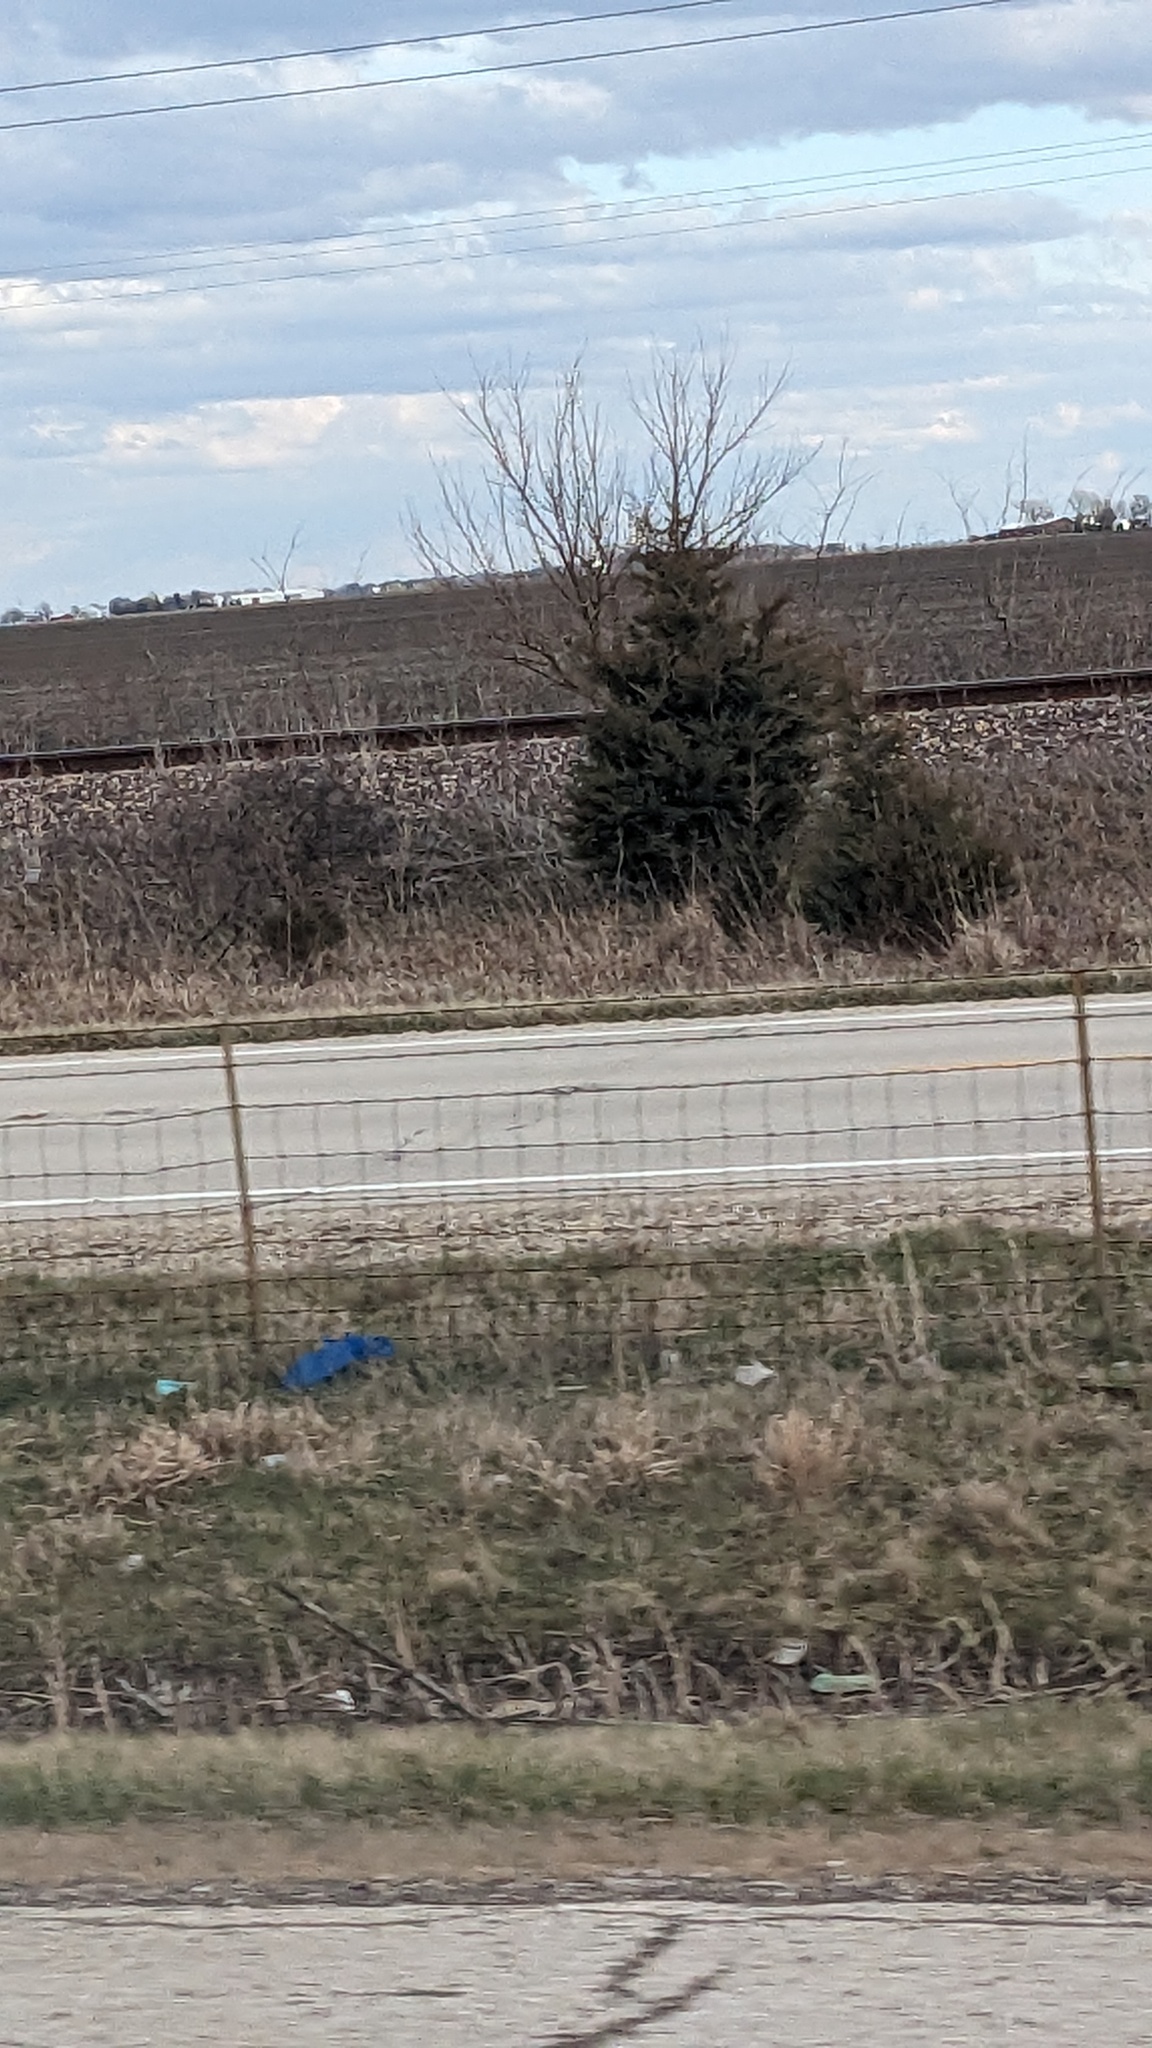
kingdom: Plantae
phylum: Tracheophyta
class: Pinopsida
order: Pinales
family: Cupressaceae
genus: Juniperus
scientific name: Juniperus virginiana
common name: Red juniper
